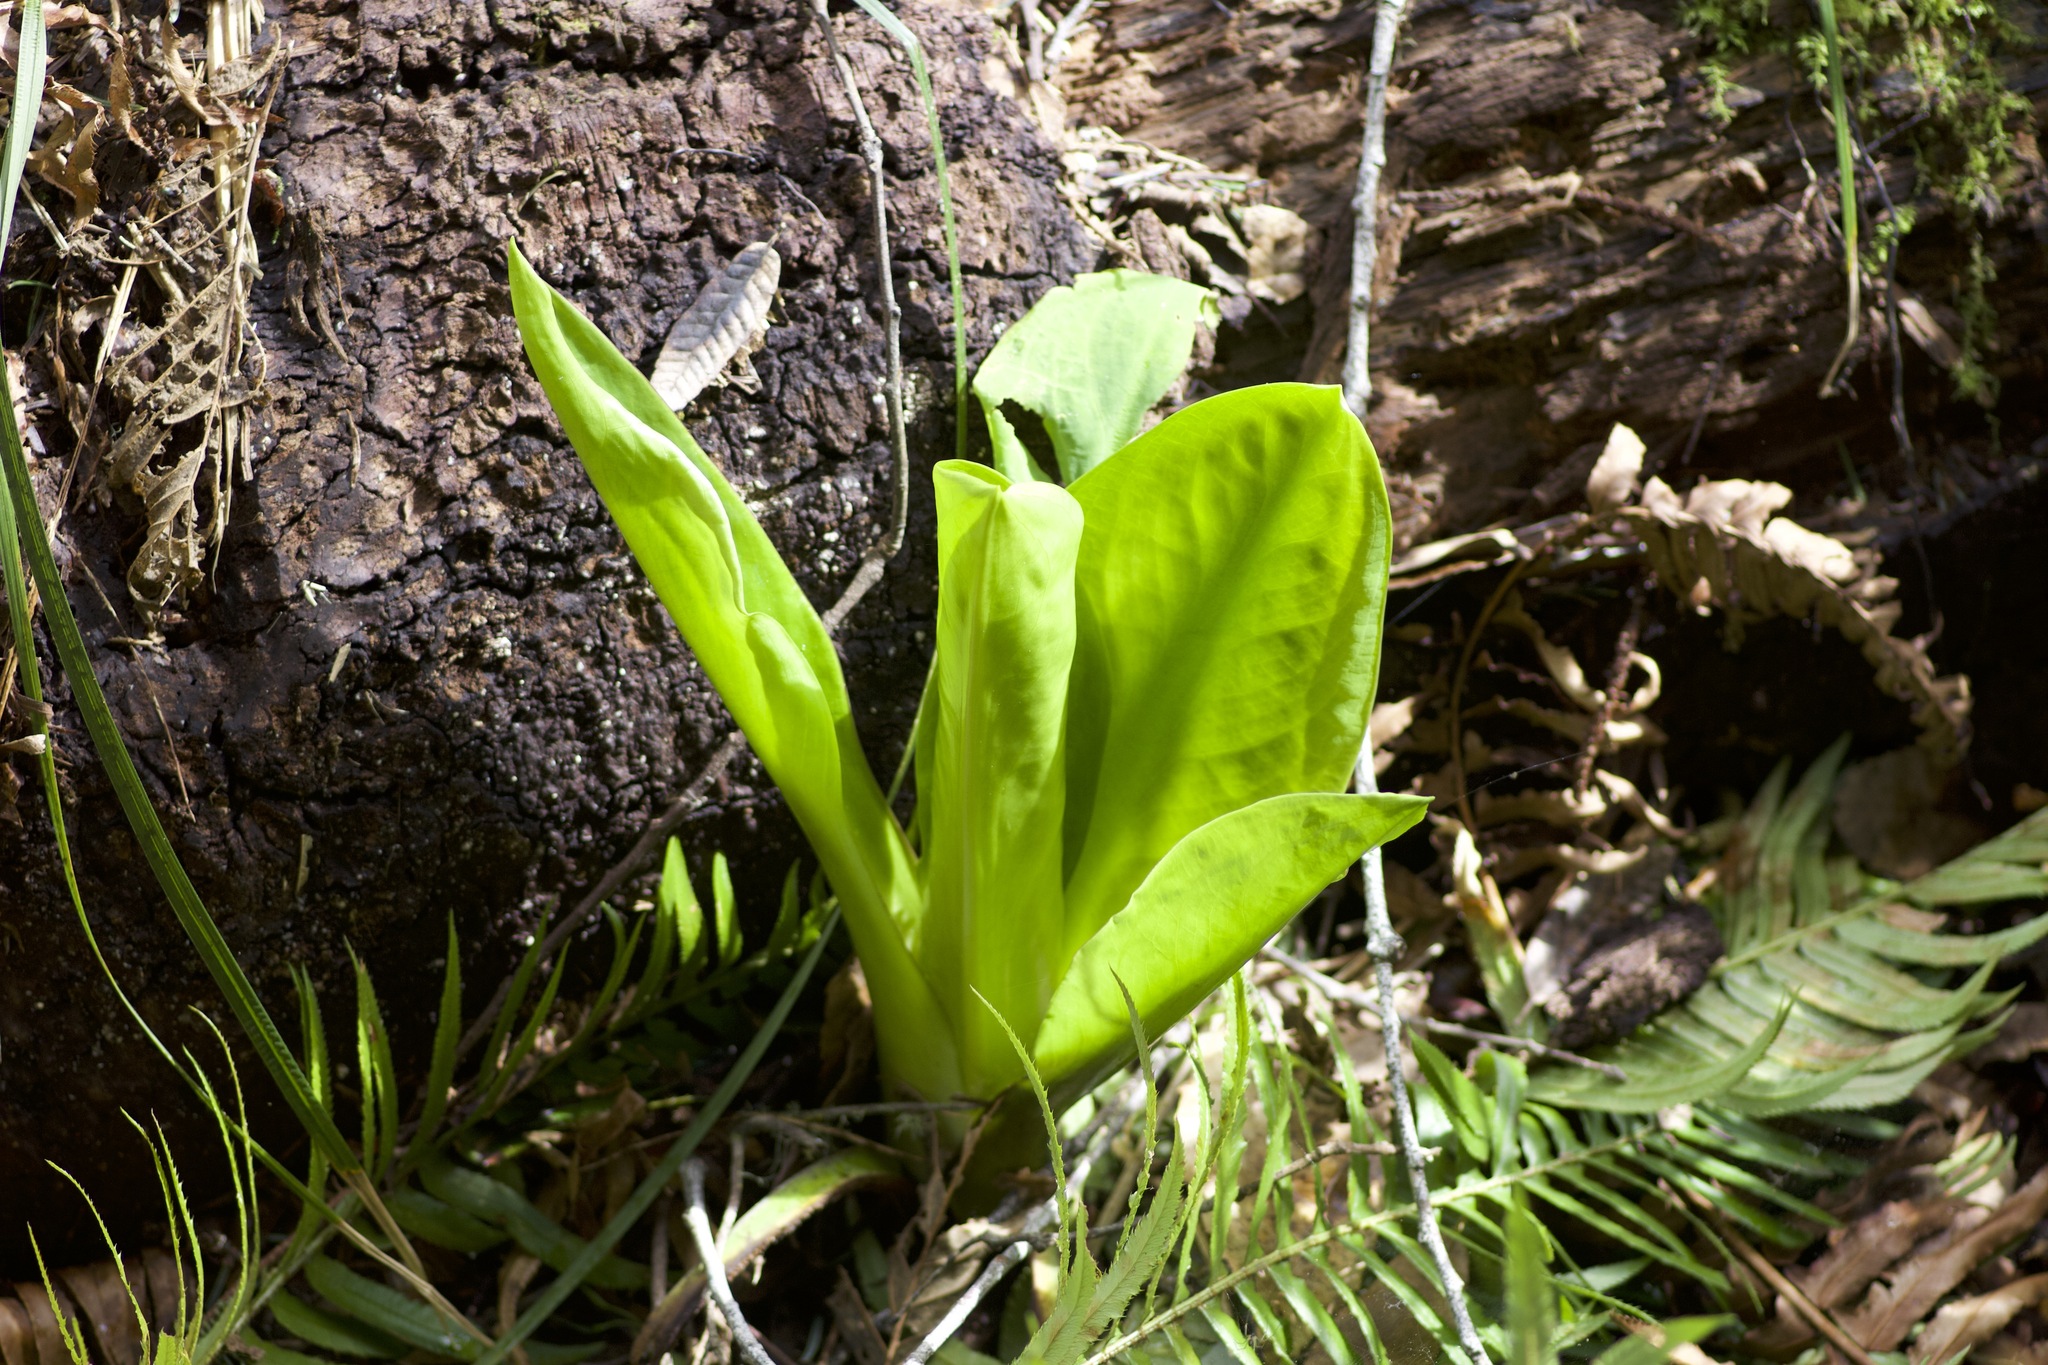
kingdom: Plantae
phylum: Tracheophyta
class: Liliopsida
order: Alismatales
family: Araceae
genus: Lysichiton
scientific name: Lysichiton americanus
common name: American skunk cabbage
